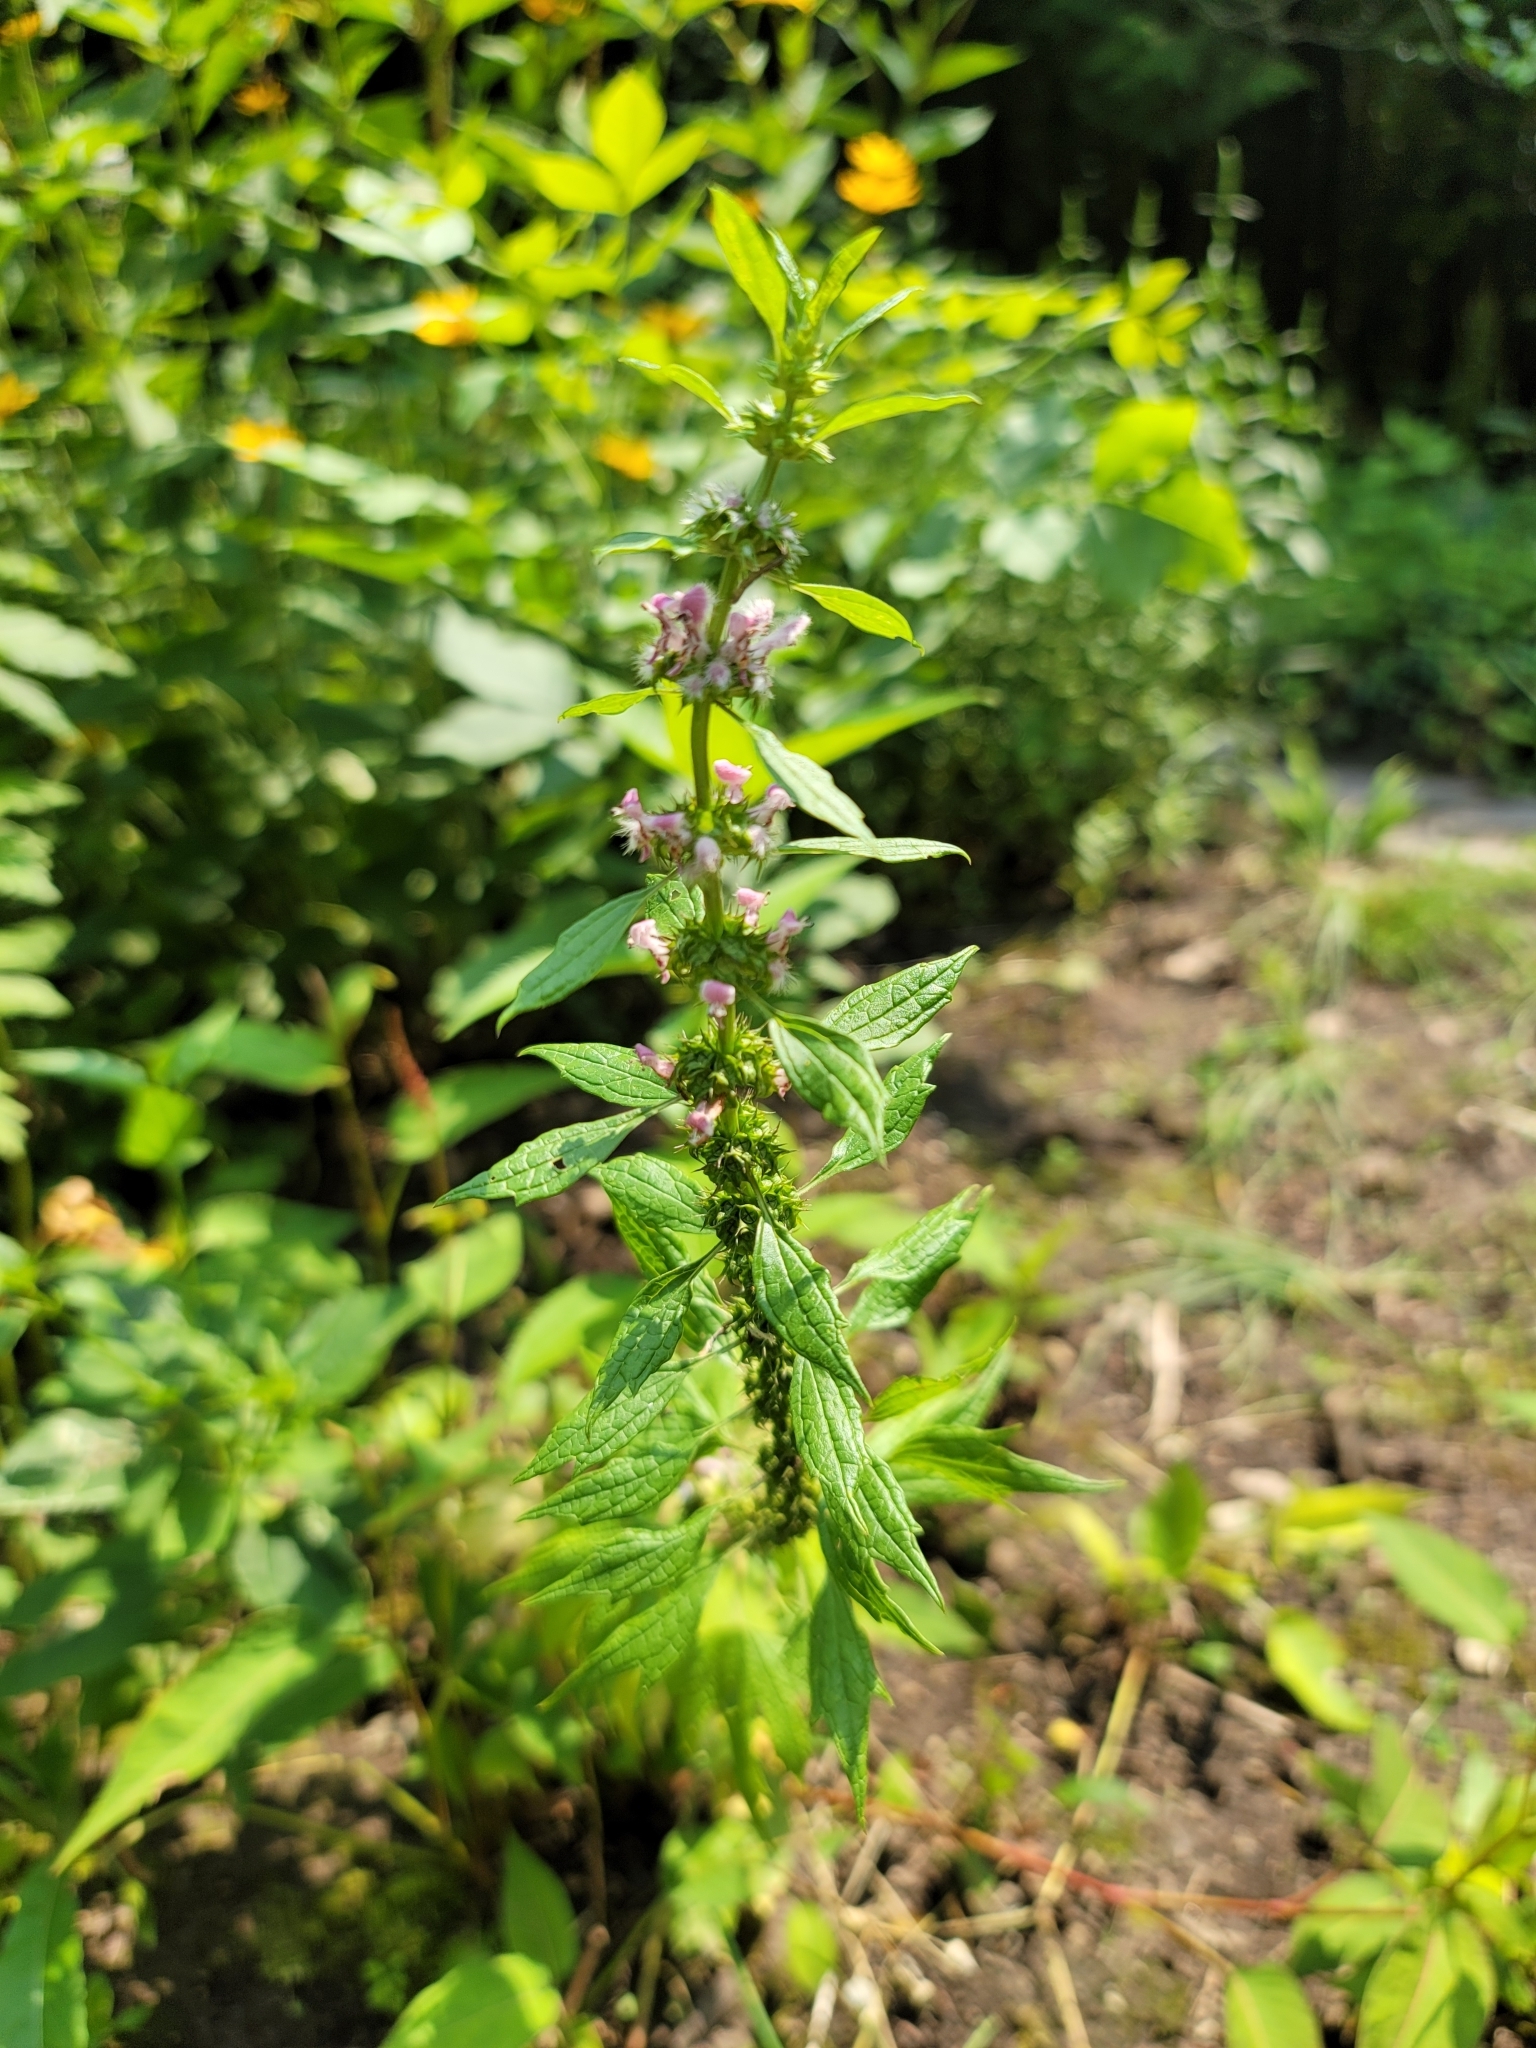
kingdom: Plantae
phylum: Tracheophyta
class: Magnoliopsida
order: Lamiales
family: Lamiaceae
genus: Leonurus
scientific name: Leonurus cardiaca
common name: Motherwort
